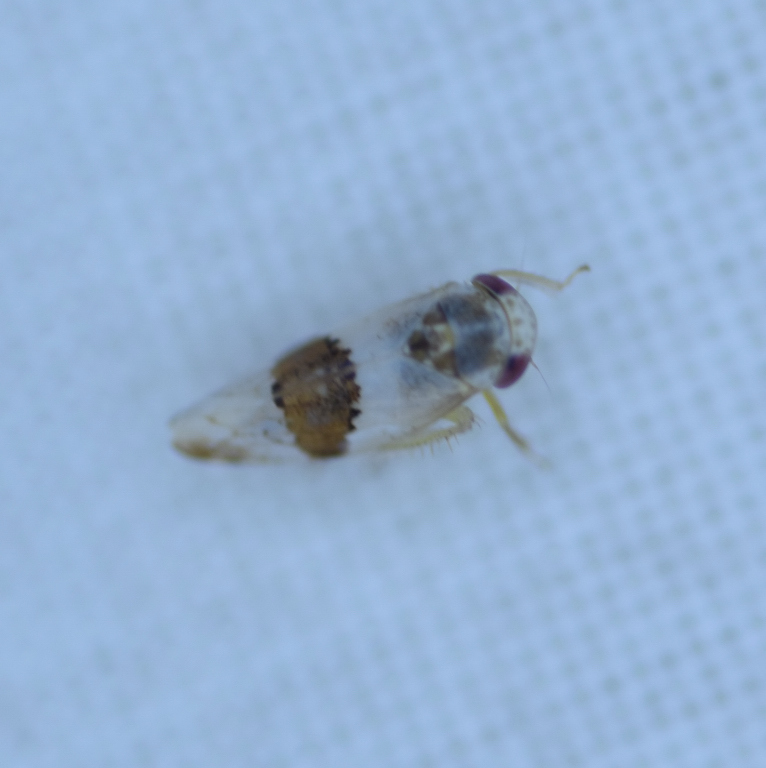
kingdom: Animalia
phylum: Arthropoda
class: Insecta
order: Hemiptera
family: Cicadellidae
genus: Norvellina
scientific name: Norvellina seminuda
